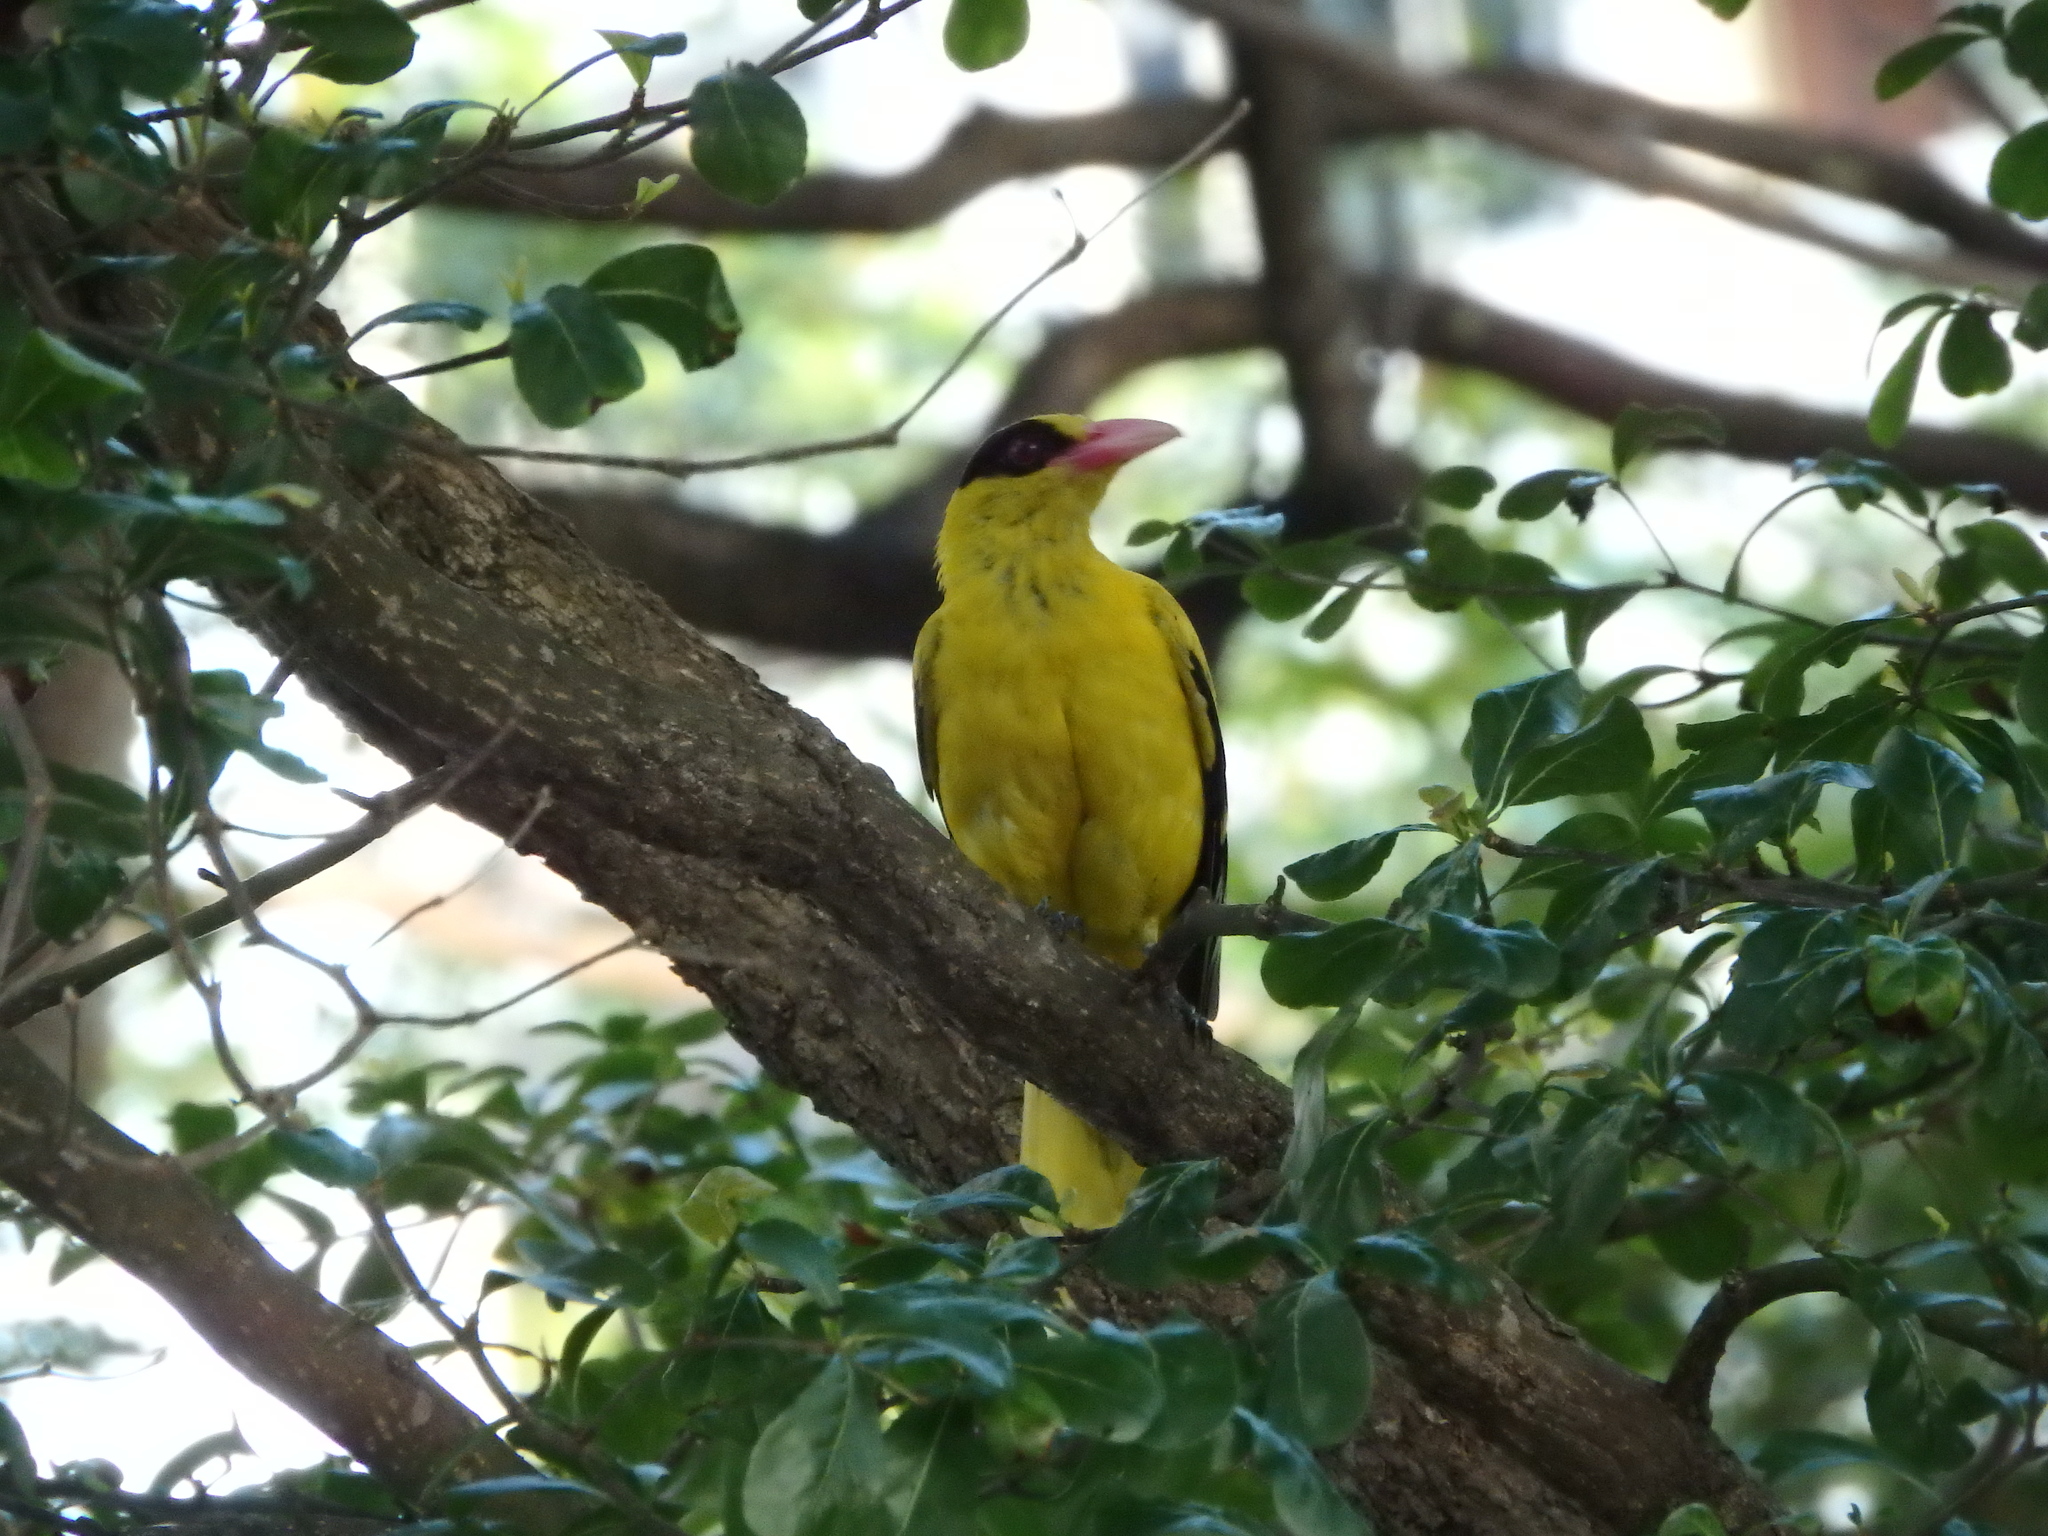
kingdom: Animalia
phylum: Chordata
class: Aves
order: Passeriformes
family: Oriolidae
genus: Oriolus
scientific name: Oriolus chinensis
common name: Black-naped oriole
